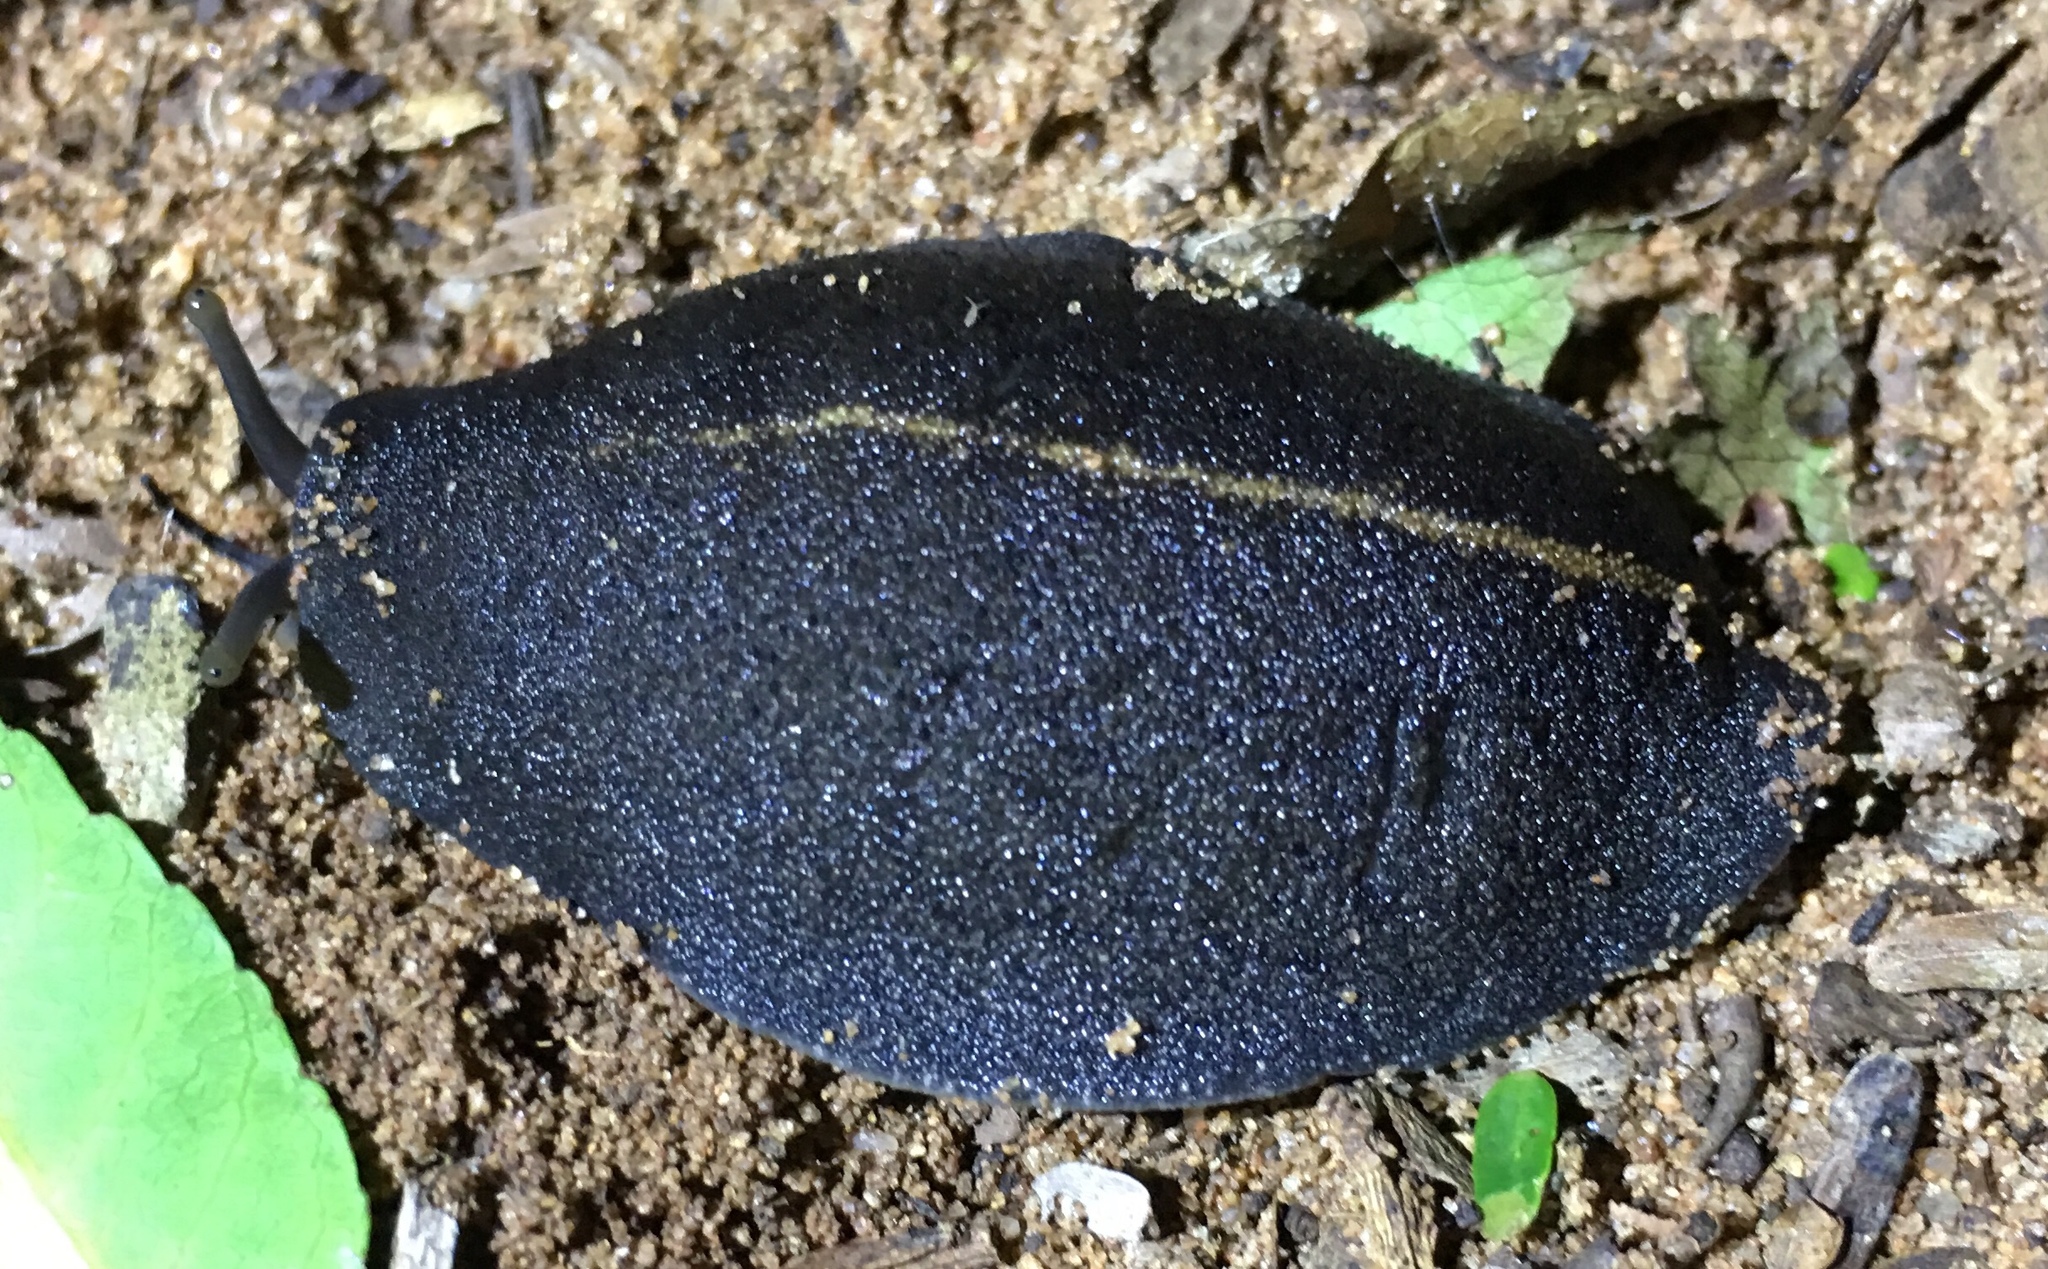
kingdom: Animalia
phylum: Mollusca
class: Gastropoda
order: Systellommatophora
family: Veronicellidae
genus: Laevicaulis
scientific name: Laevicaulis alte
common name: Tropical leatherleaf
